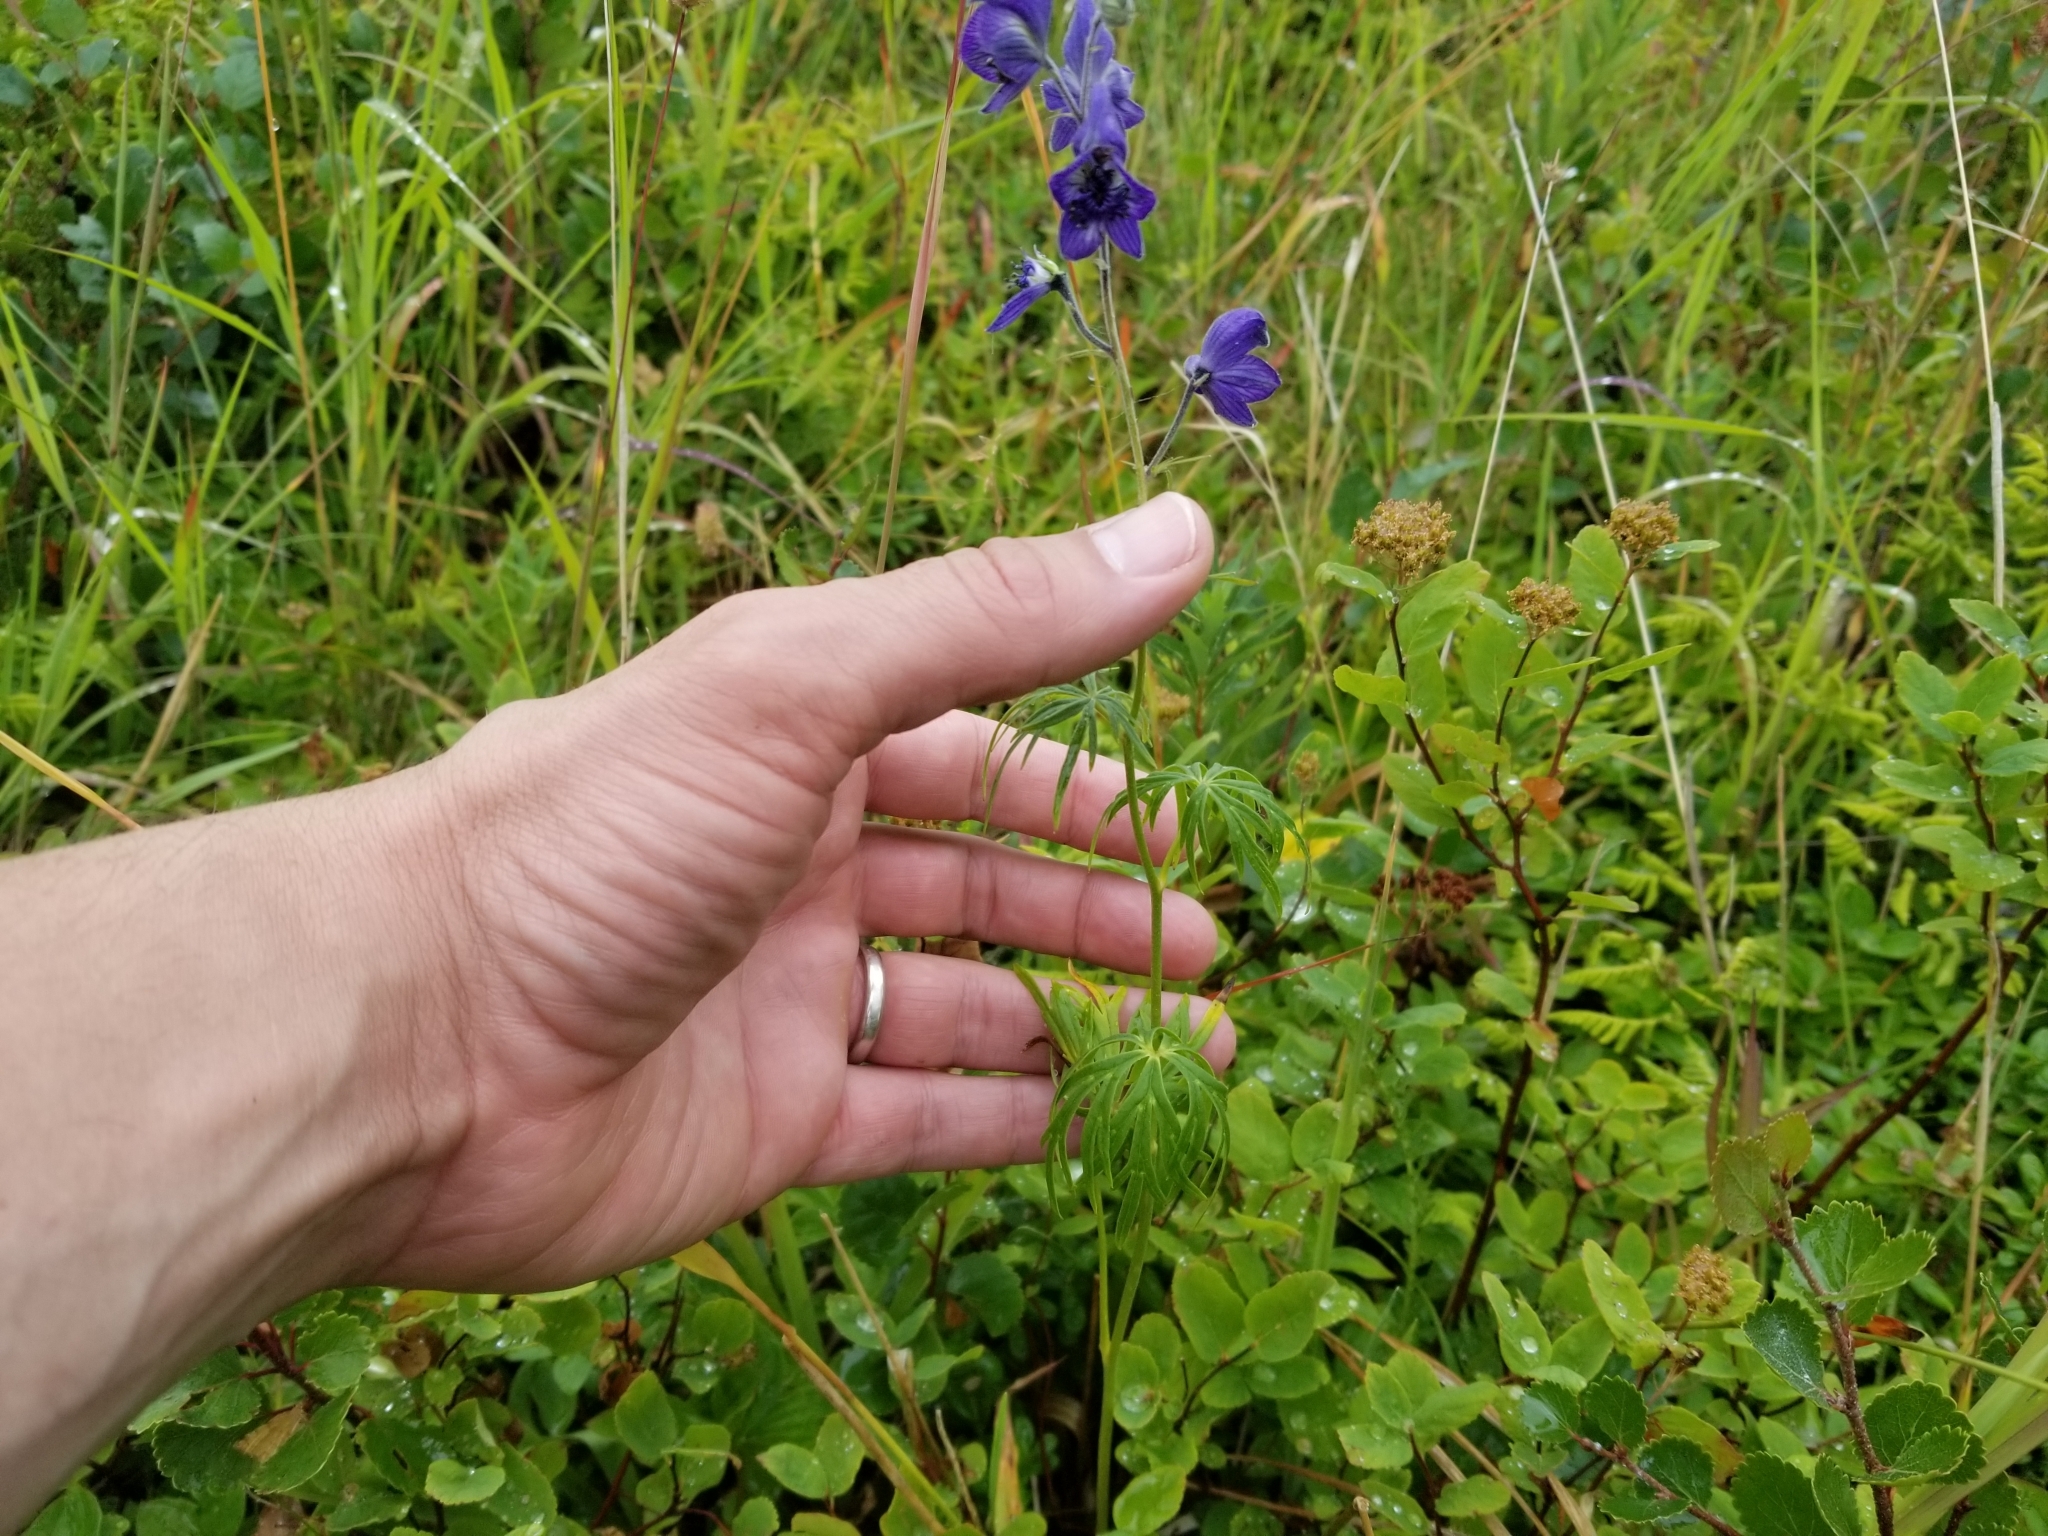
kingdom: Plantae
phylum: Tracheophyta
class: Magnoliopsida
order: Ranunculales
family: Ranunculaceae
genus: Aconitum
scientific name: Aconitum delphiniifolium
